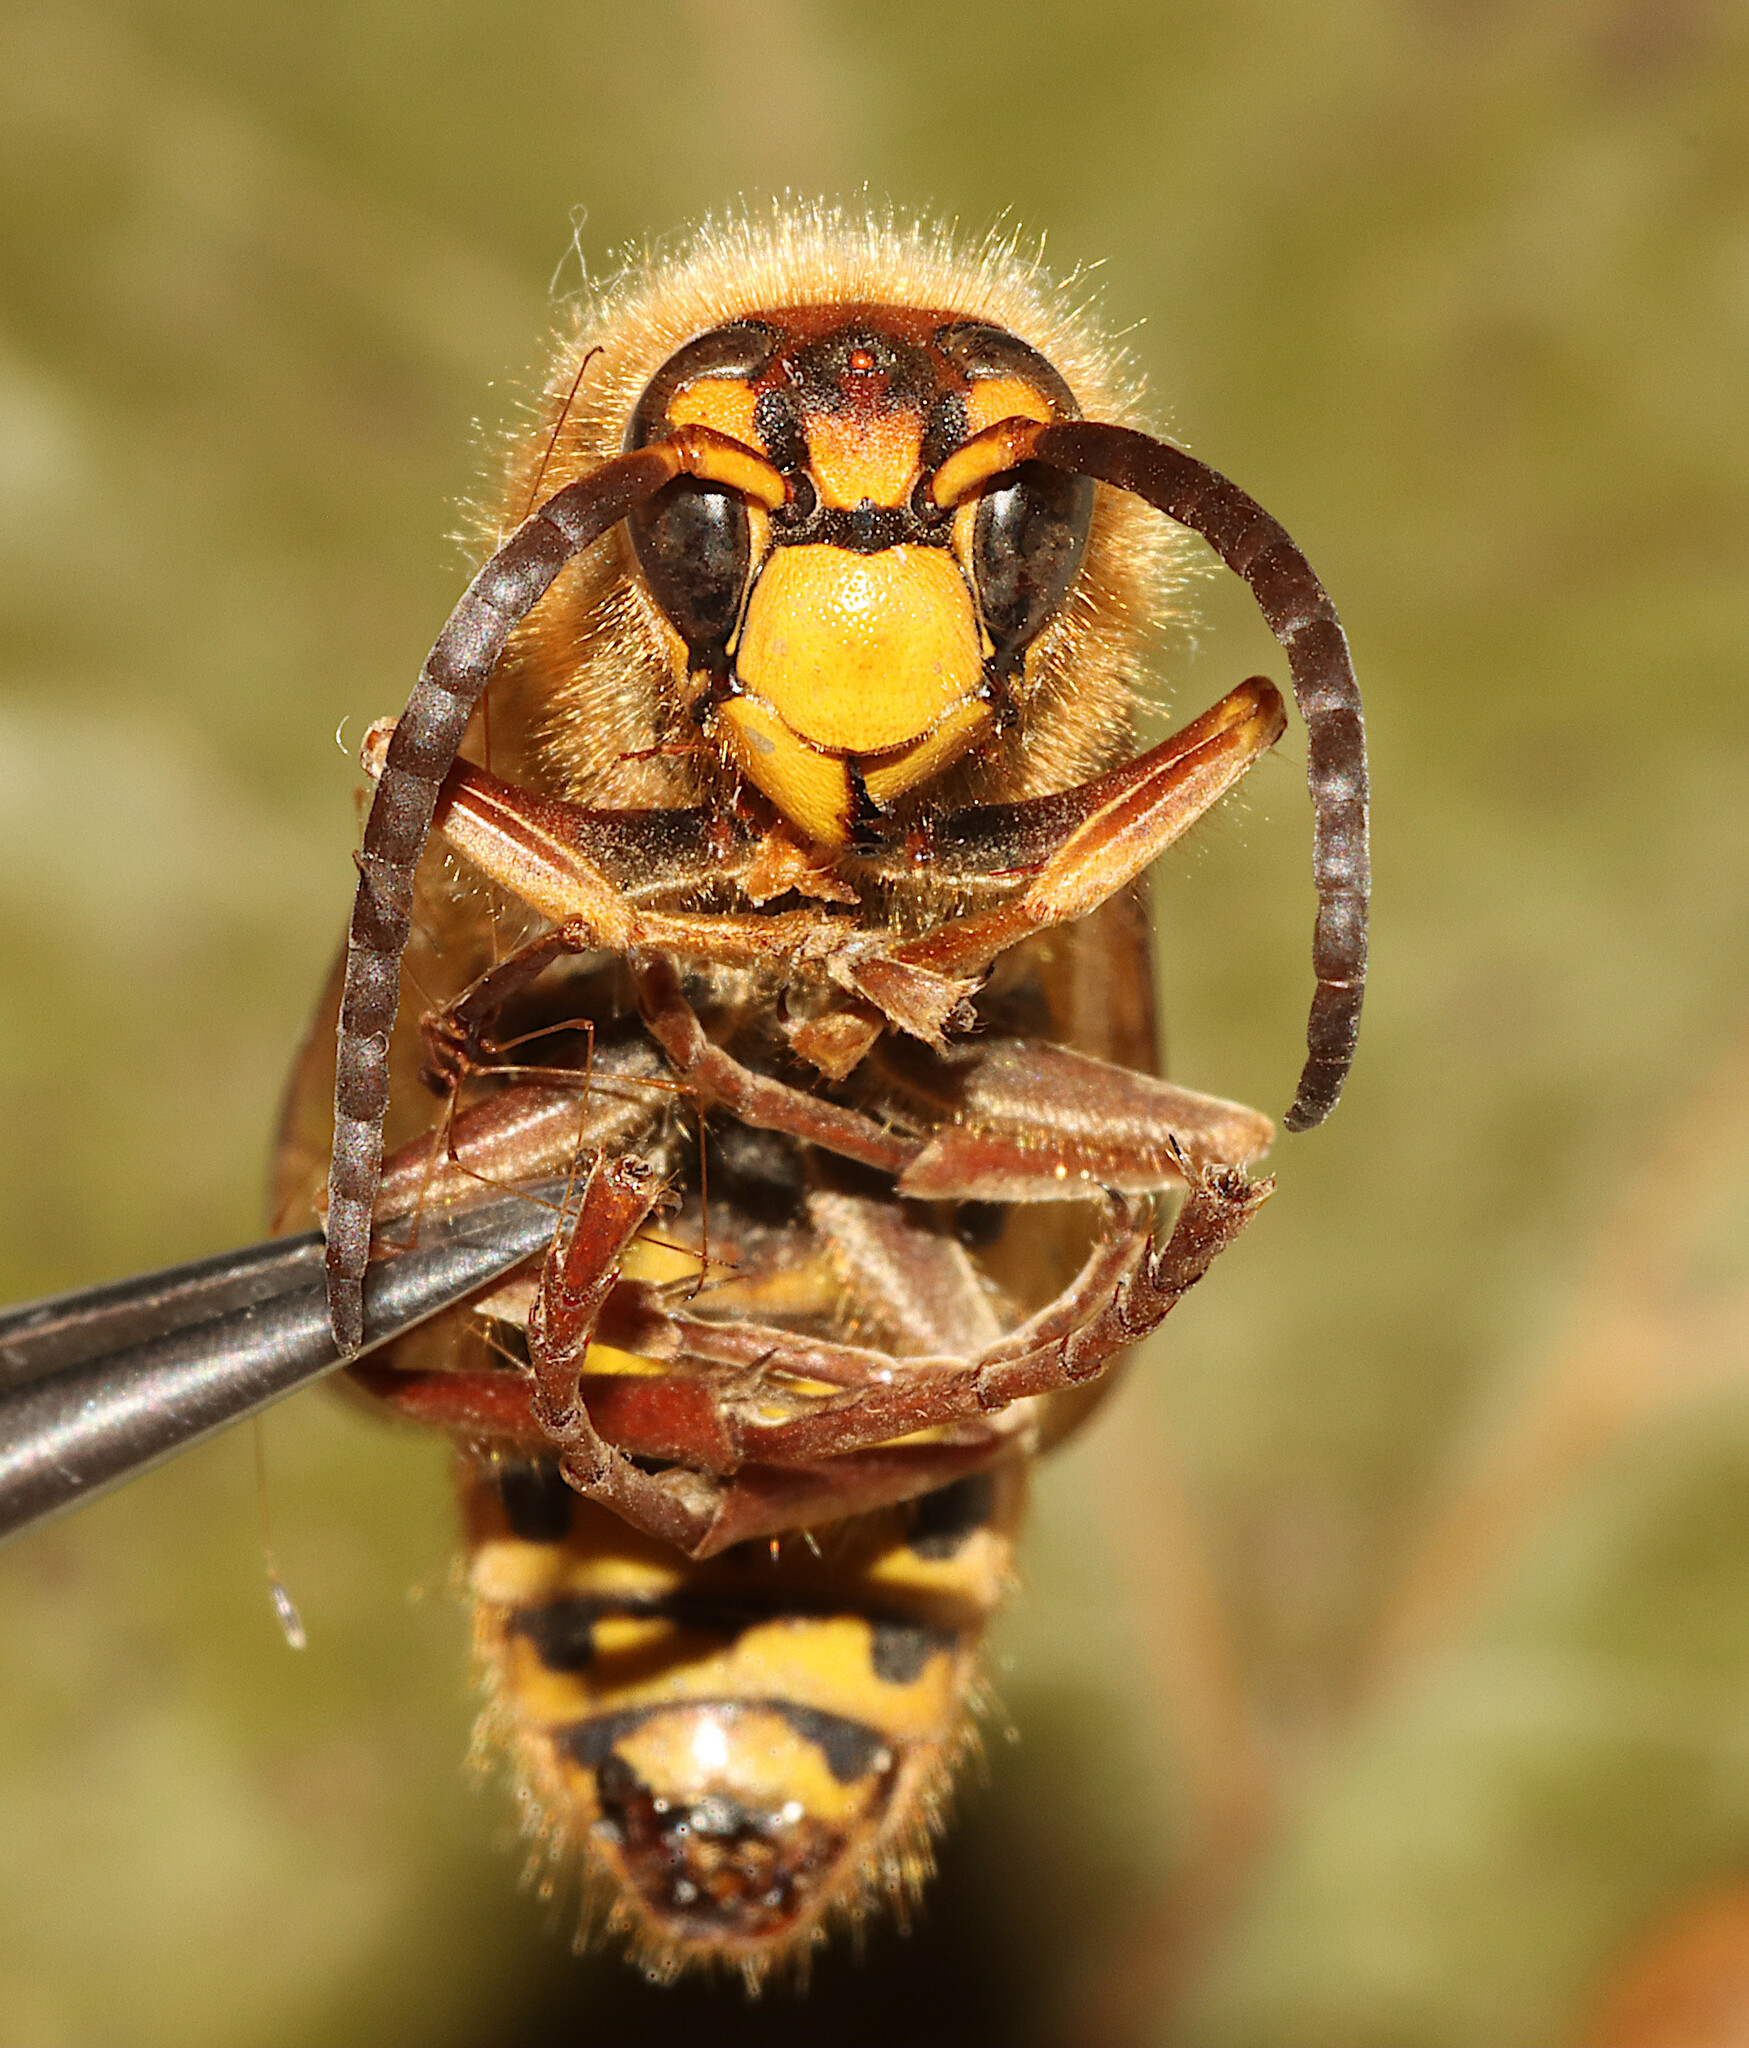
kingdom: Animalia
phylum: Arthropoda
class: Insecta
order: Hymenoptera
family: Vespidae
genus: Vespa
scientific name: Vespa crabro
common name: Hornet
